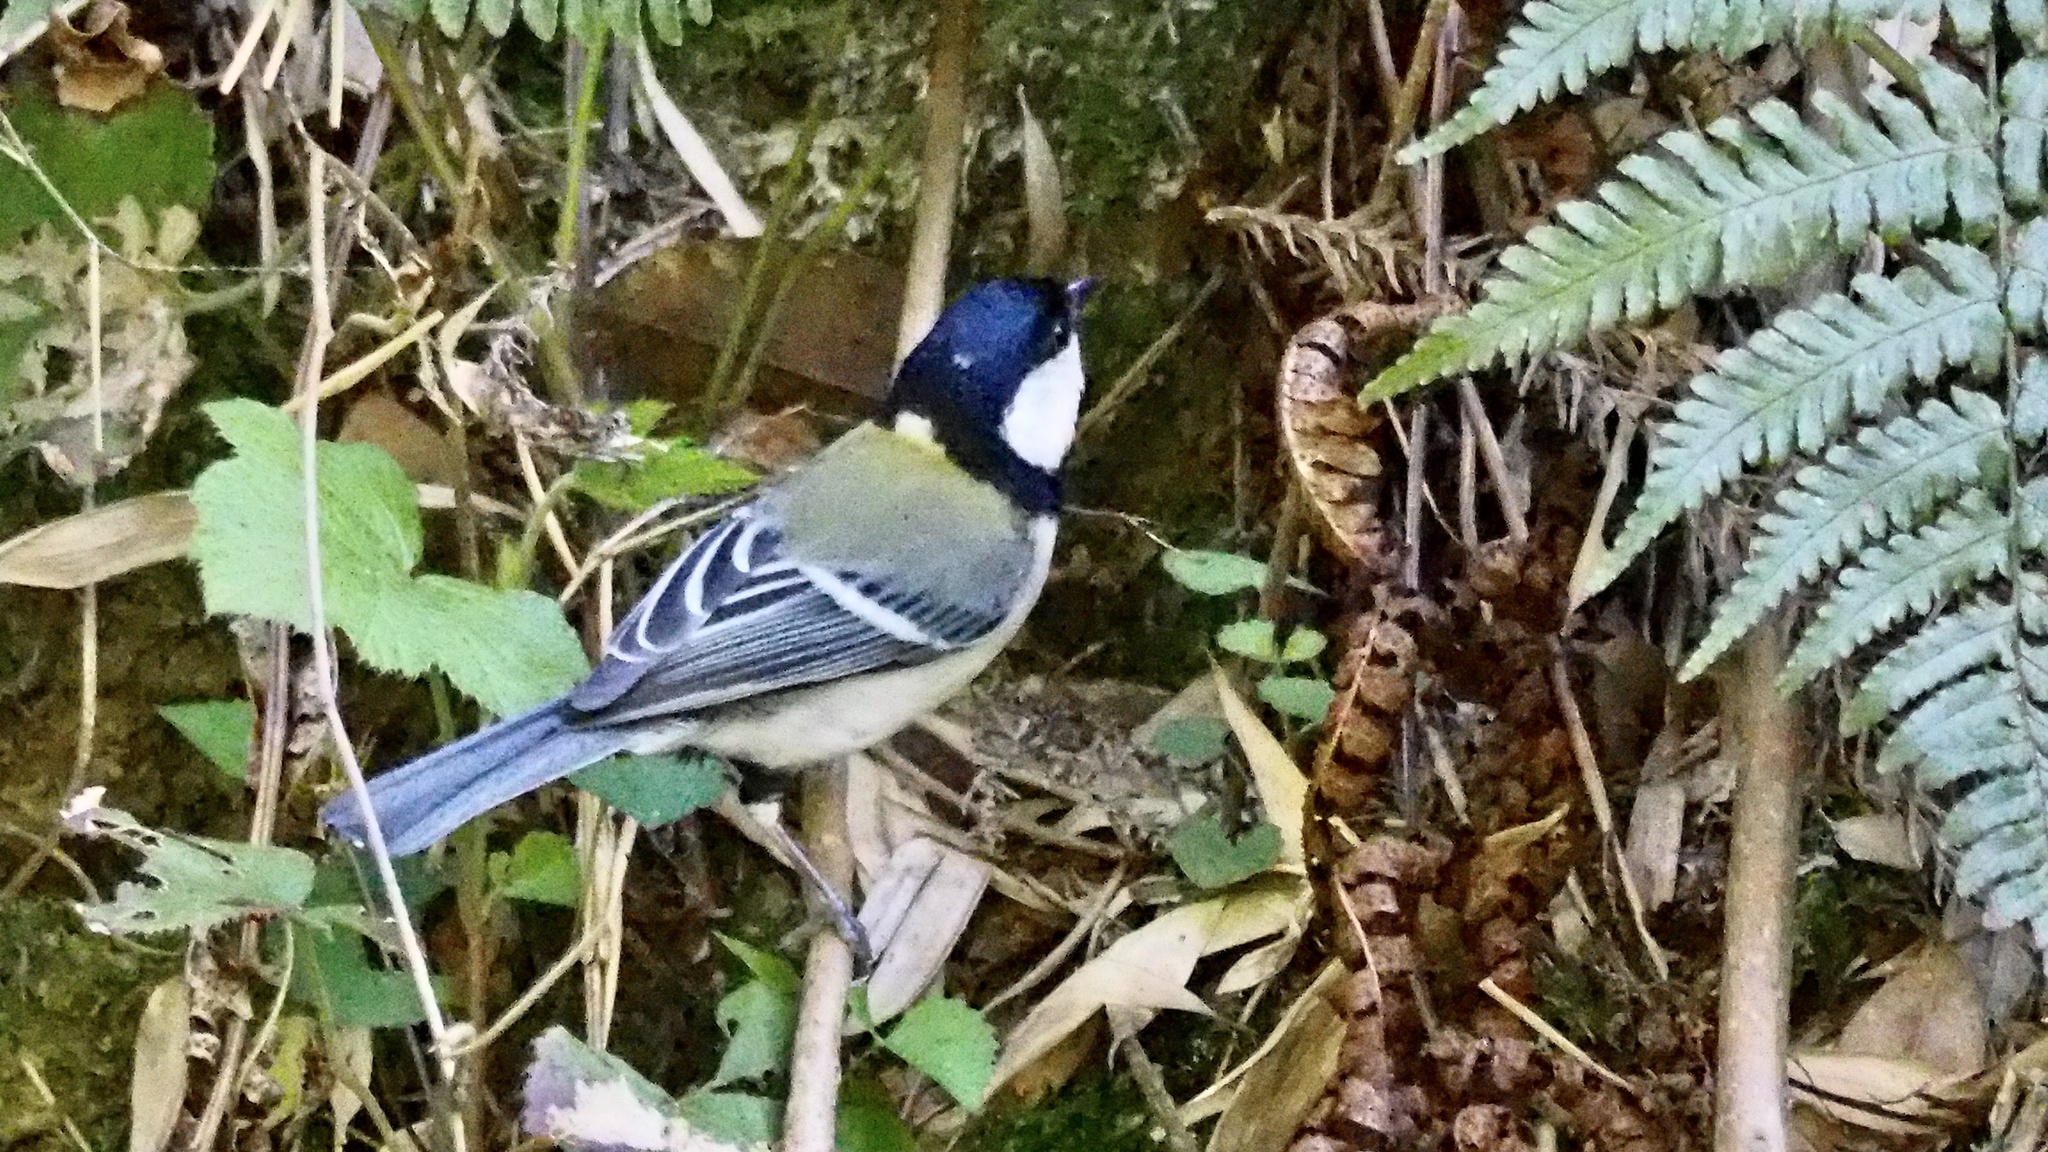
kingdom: Animalia
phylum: Chordata
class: Aves
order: Passeriformes
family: Paridae
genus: Parus
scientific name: Parus minor
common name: Japanese tit
